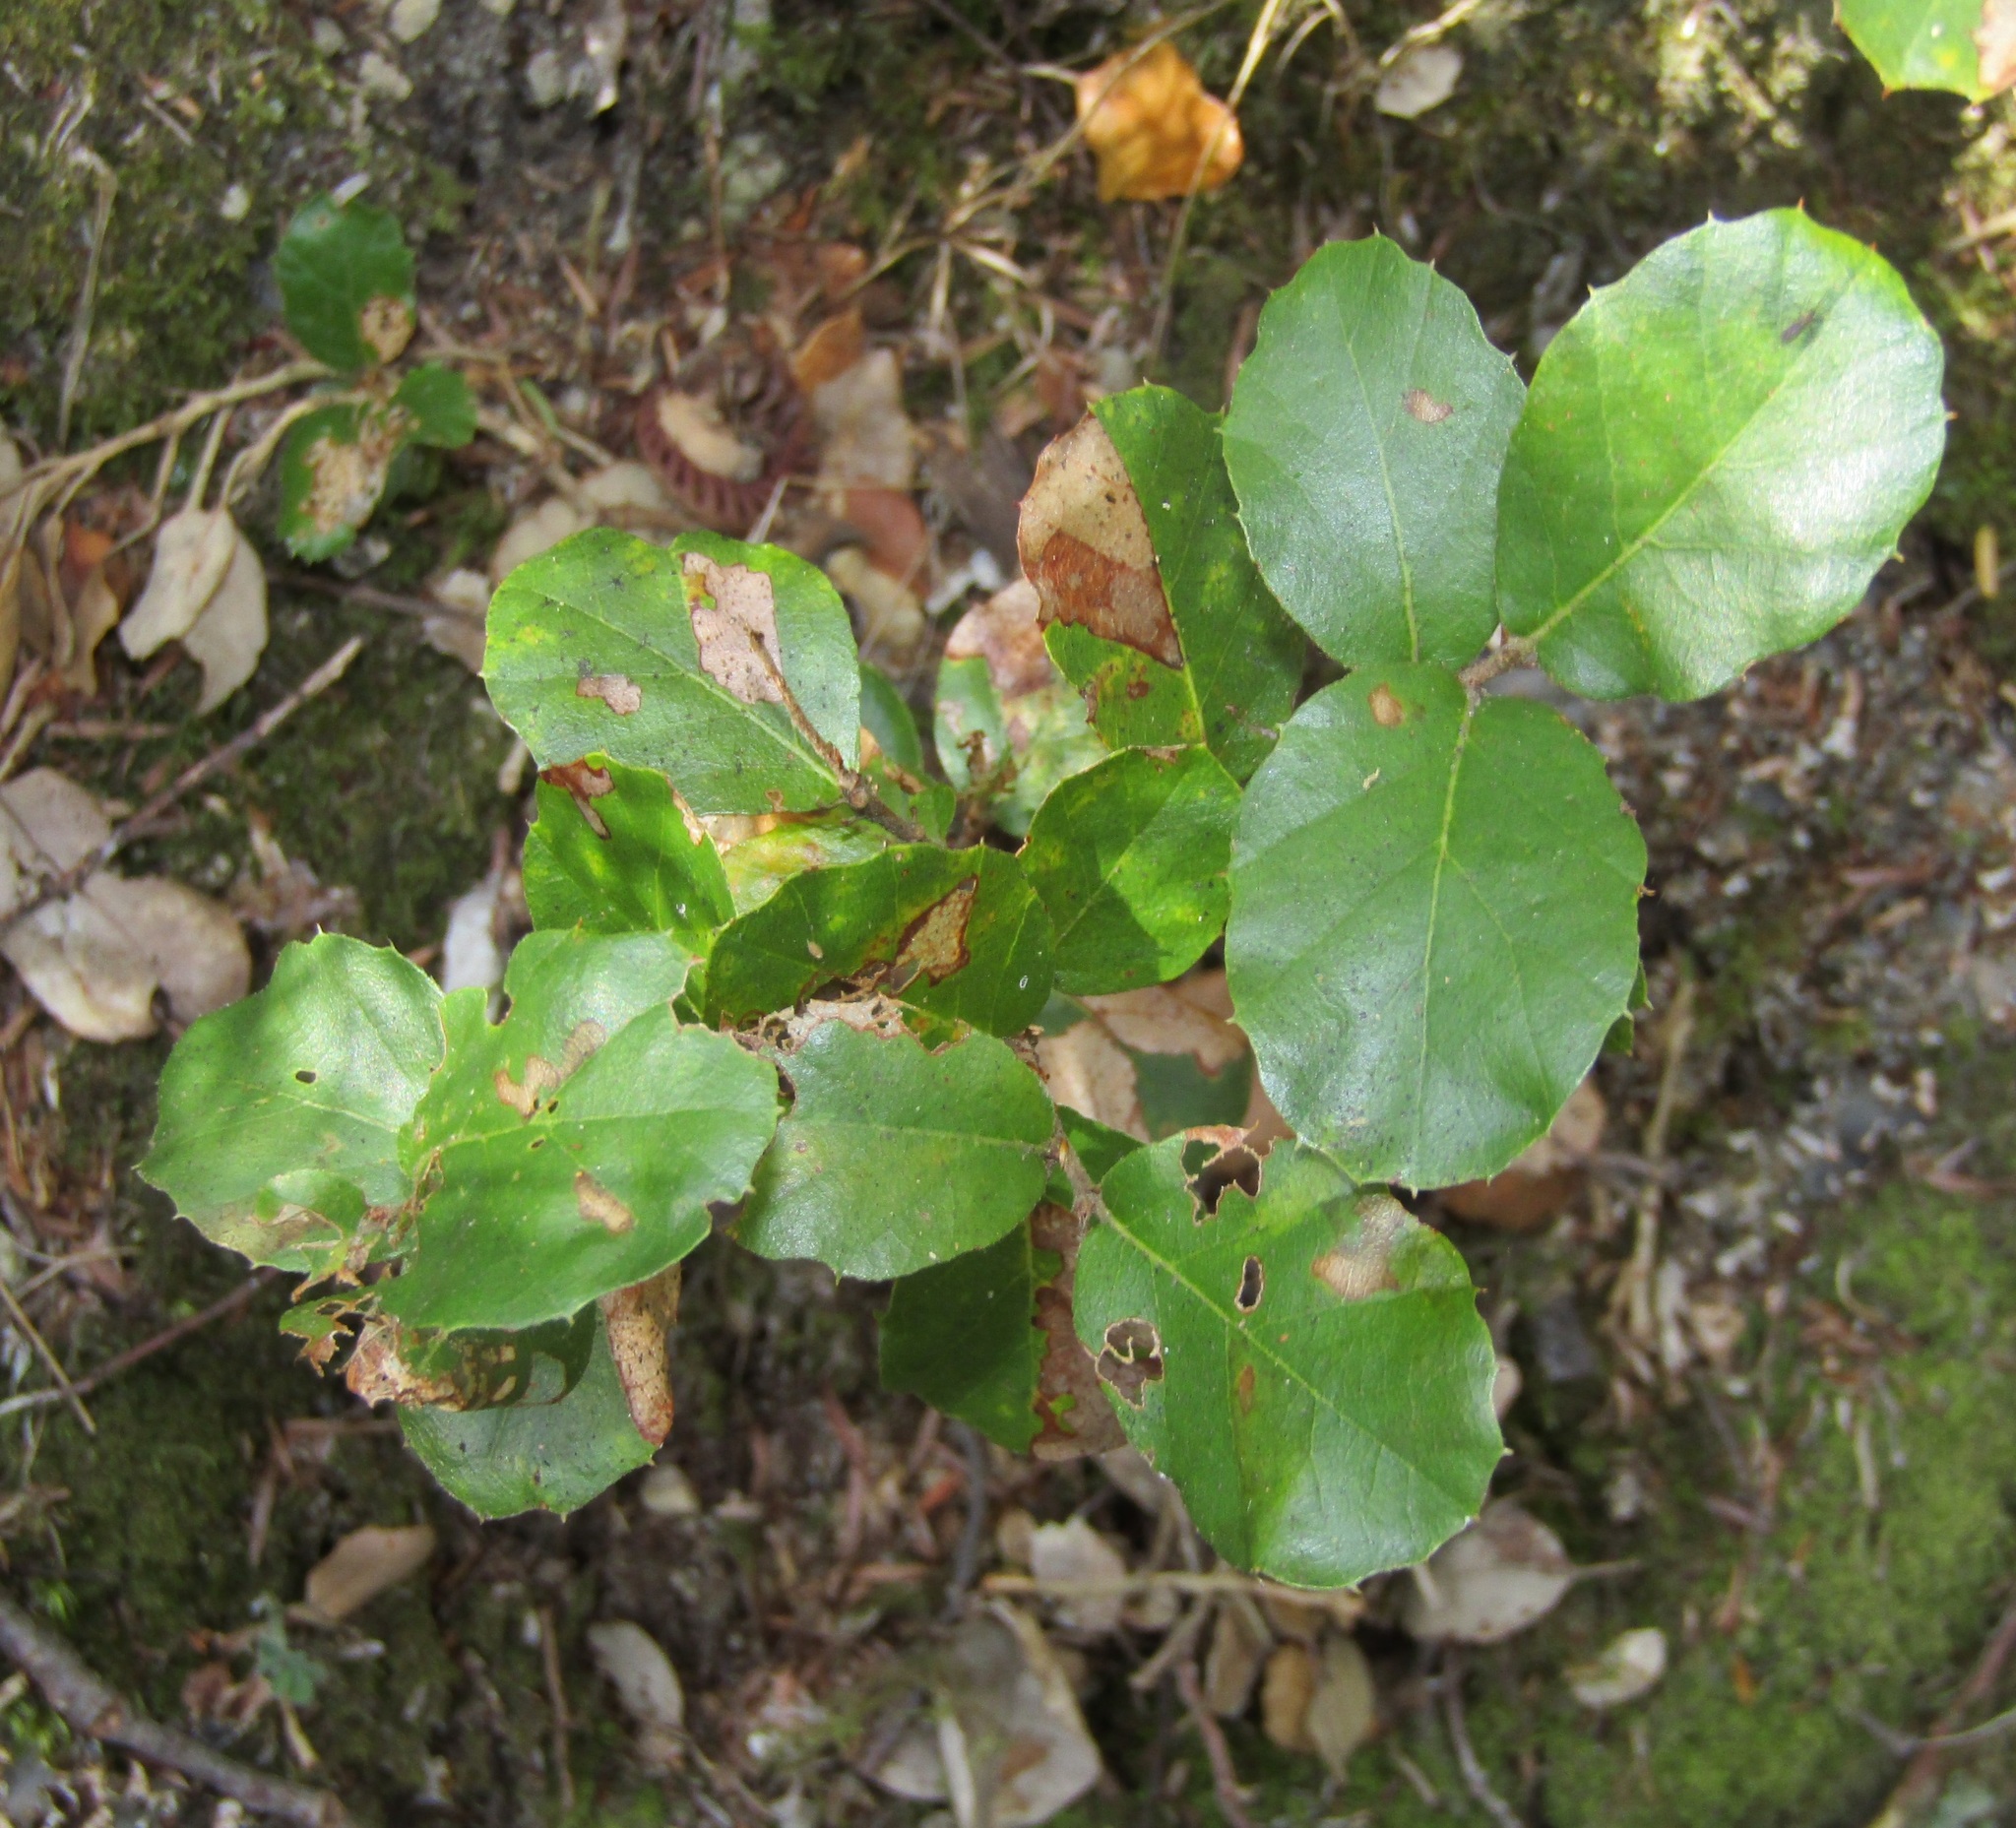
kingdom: Plantae
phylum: Tracheophyta
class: Magnoliopsida
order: Fagales
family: Fagaceae
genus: Quercus
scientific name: Quercus suber
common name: Cork oak
